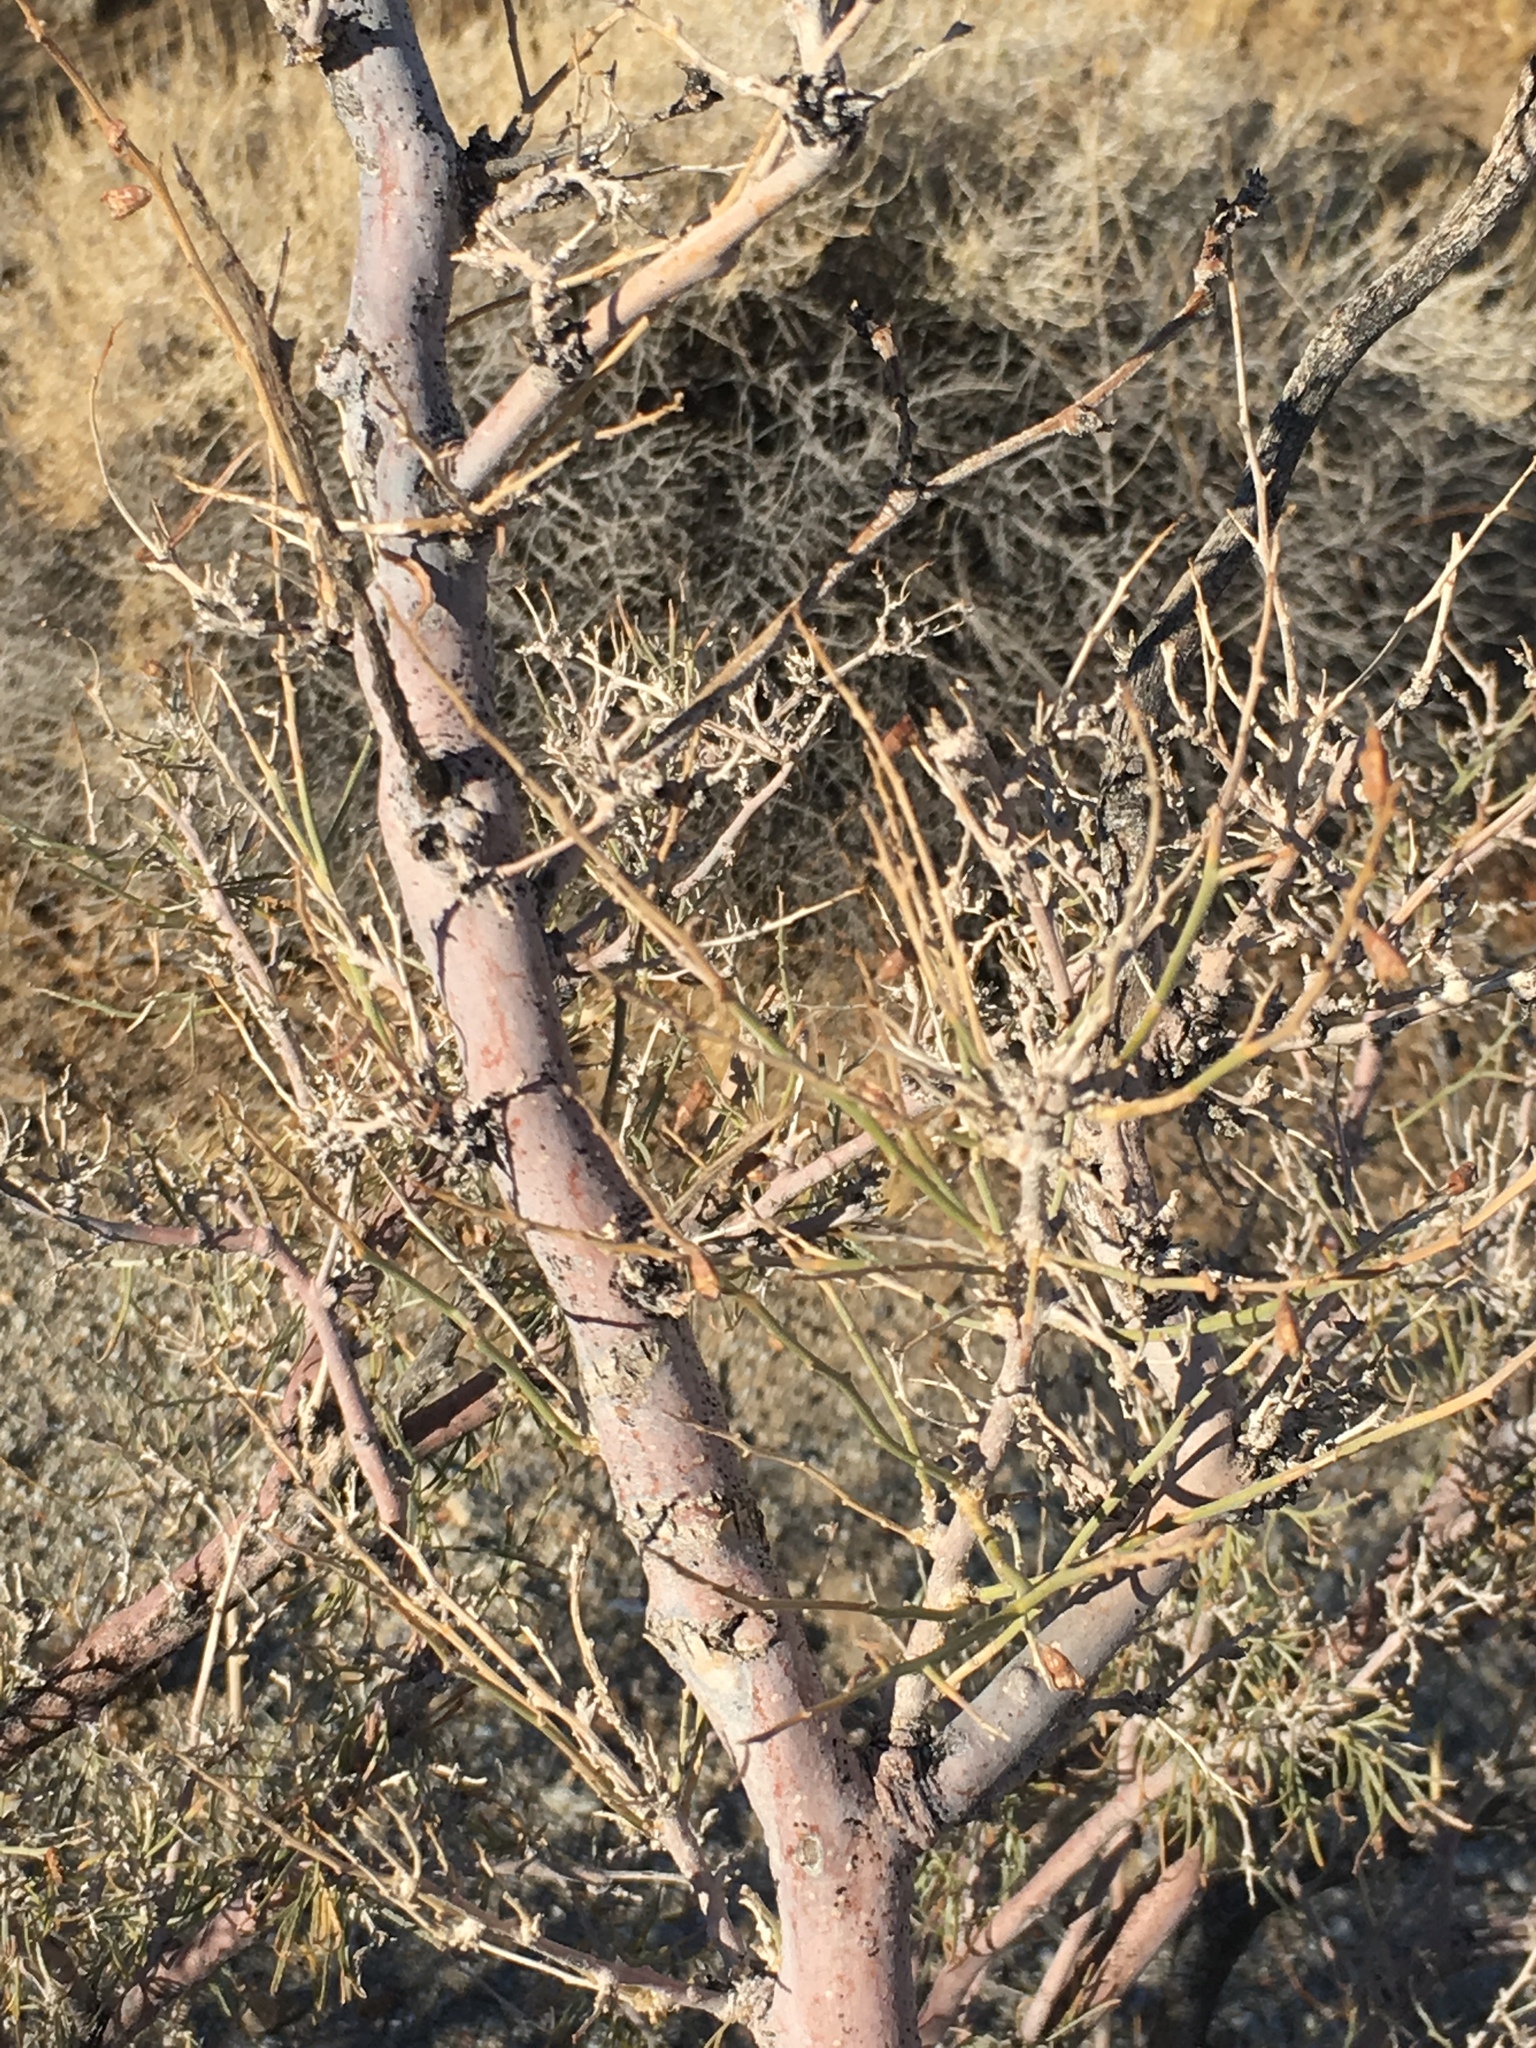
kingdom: Plantae
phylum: Tracheophyta
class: Magnoliopsida
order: Fabales
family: Fabaceae
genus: Psorothamnus
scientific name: Psorothamnus schottii
